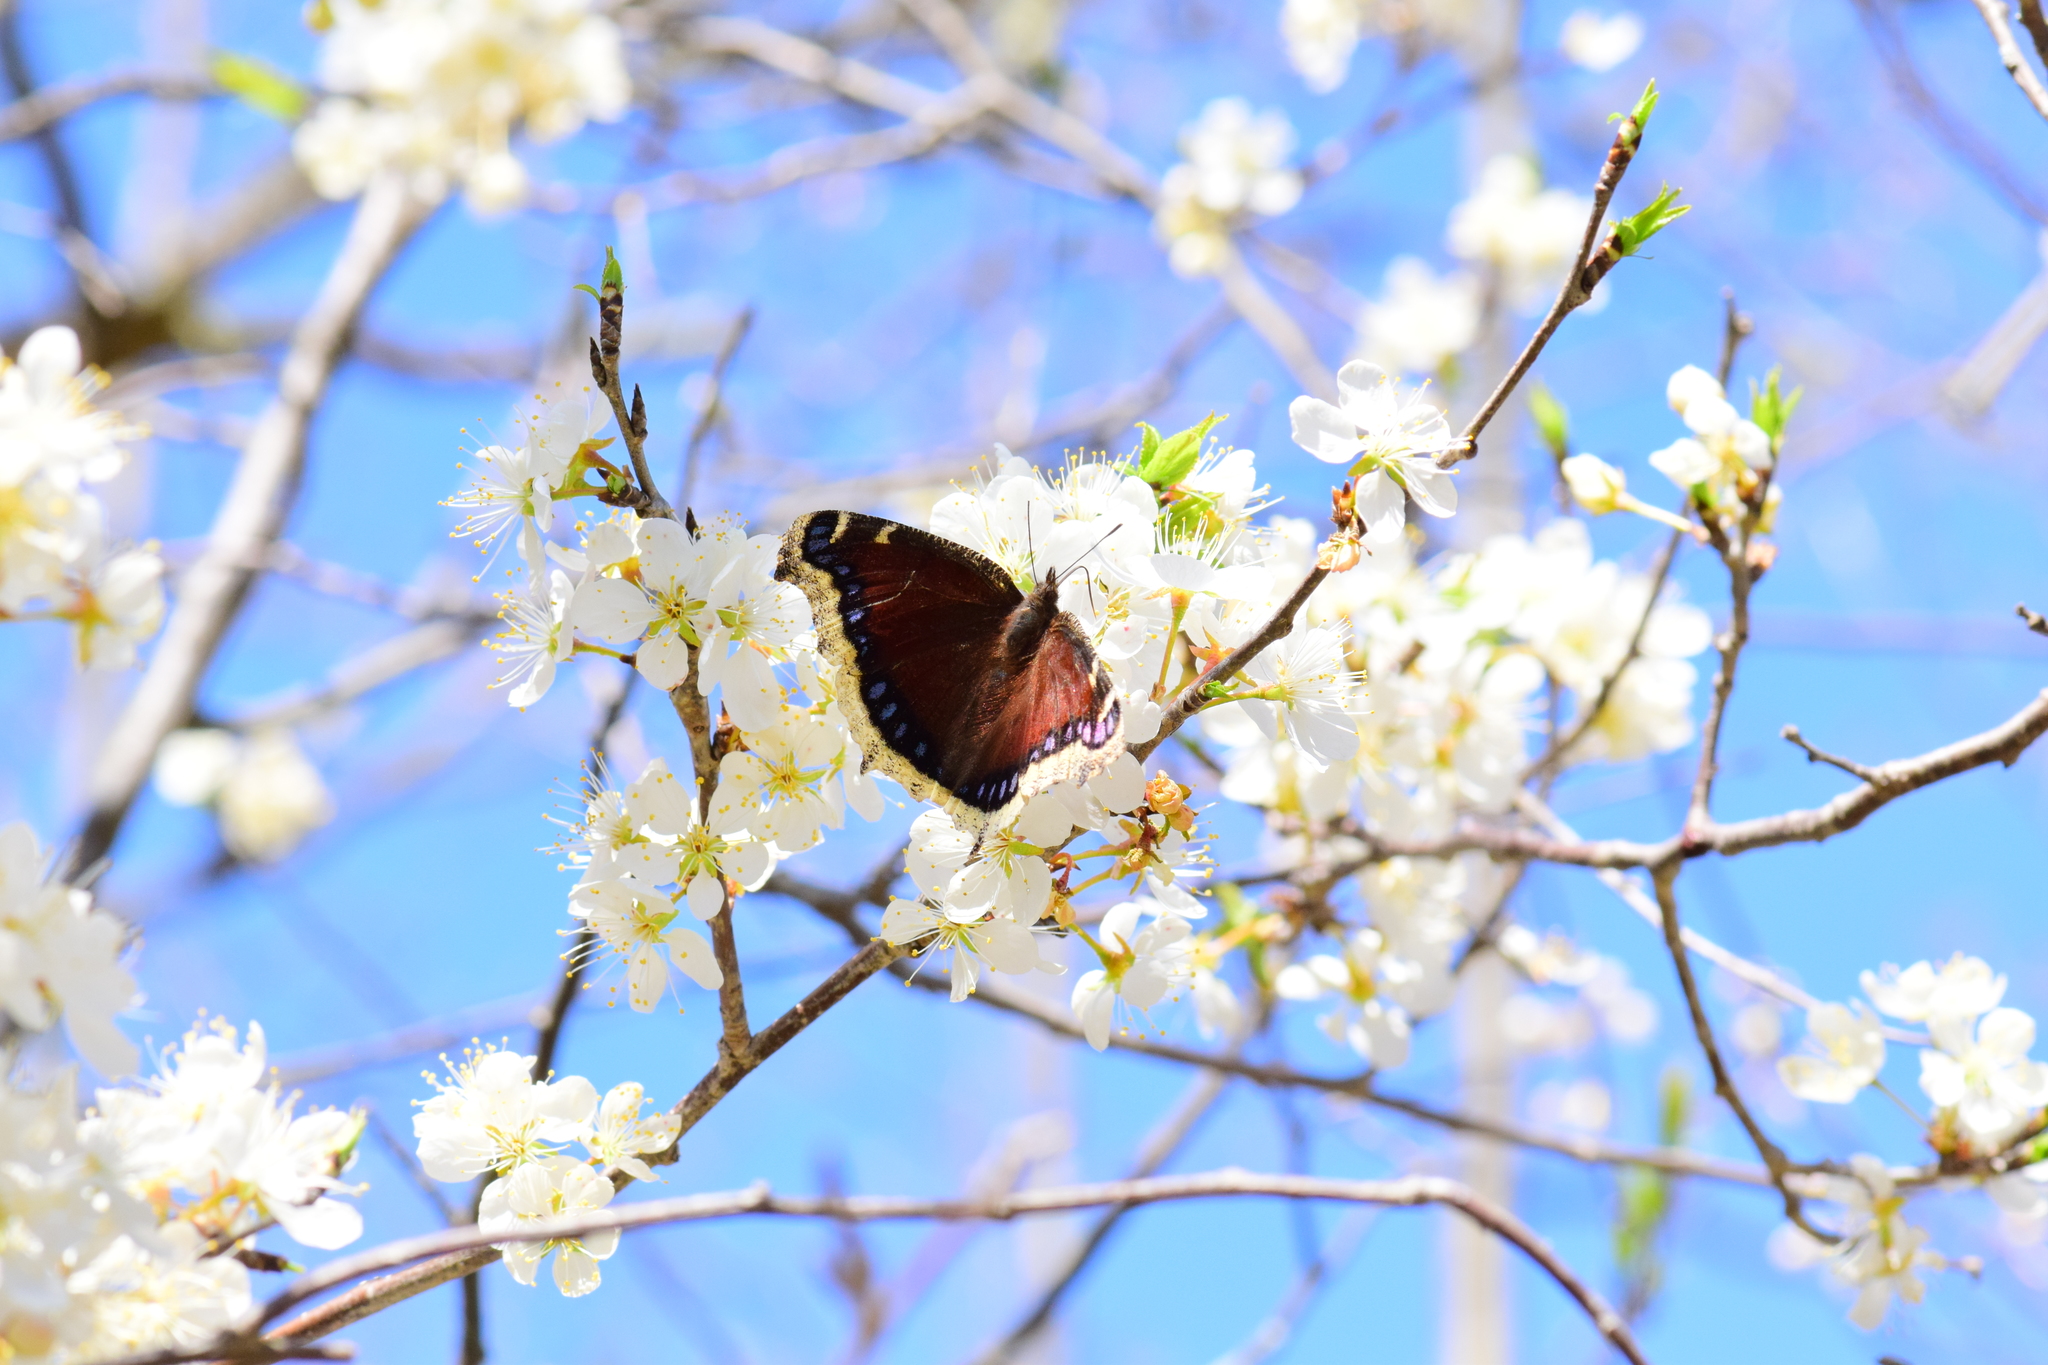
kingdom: Animalia
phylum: Arthropoda
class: Insecta
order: Lepidoptera
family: Nymphalidae
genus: Nymphalis
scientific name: Nymphalis antiopa
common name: Camberwell beauty
